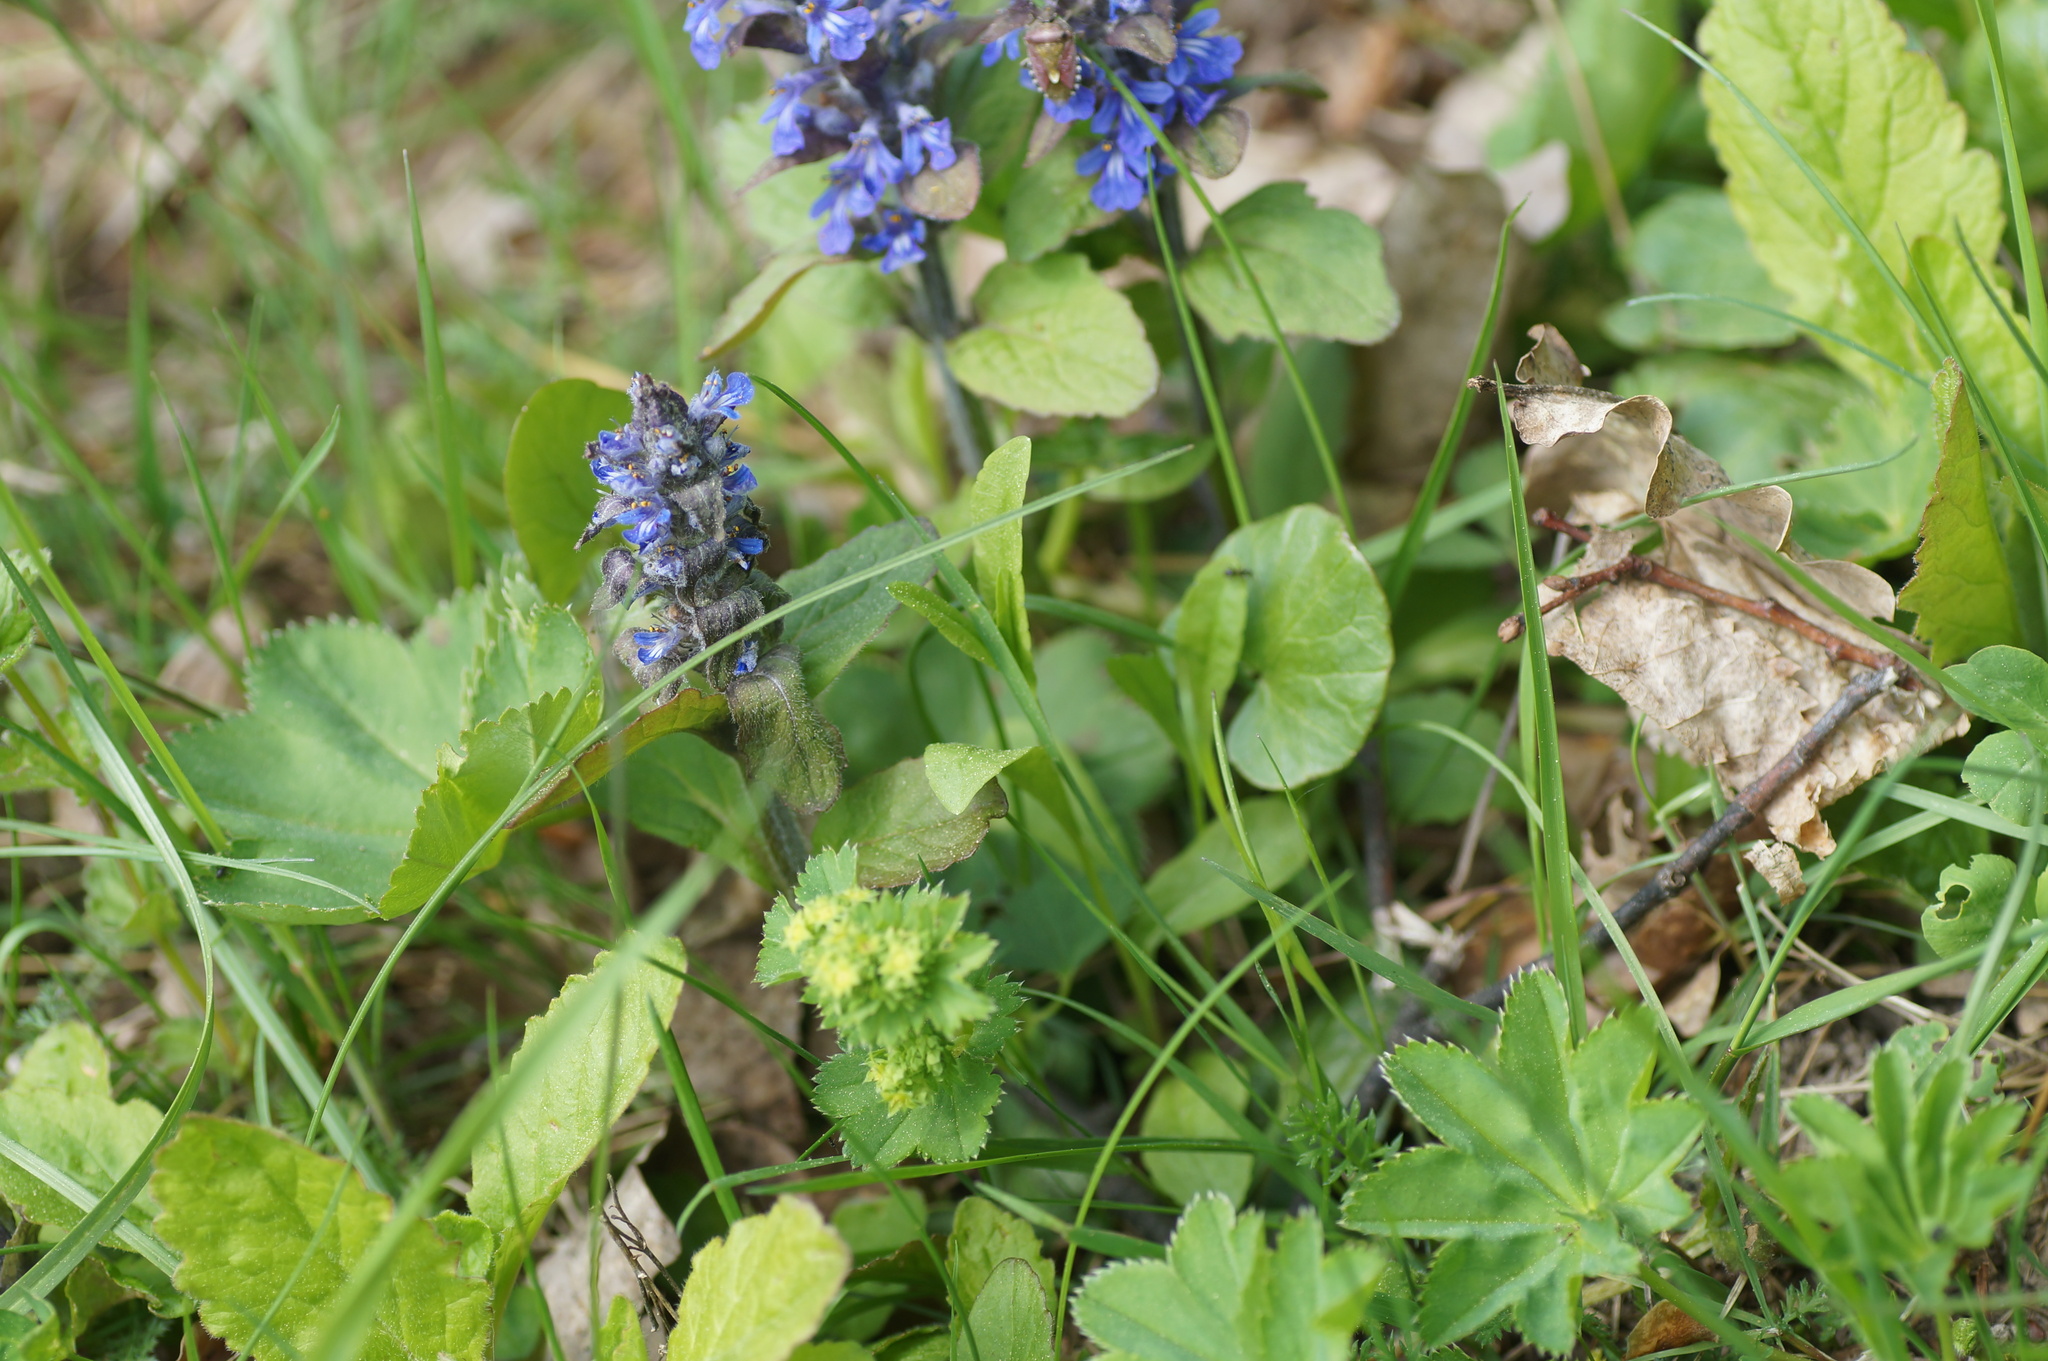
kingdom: Plantae
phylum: Tracheophyta
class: Magnoliopsida
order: Lamiales
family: Lamiaceae
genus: Ajuga
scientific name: Ajuga reptans
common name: Bugle
